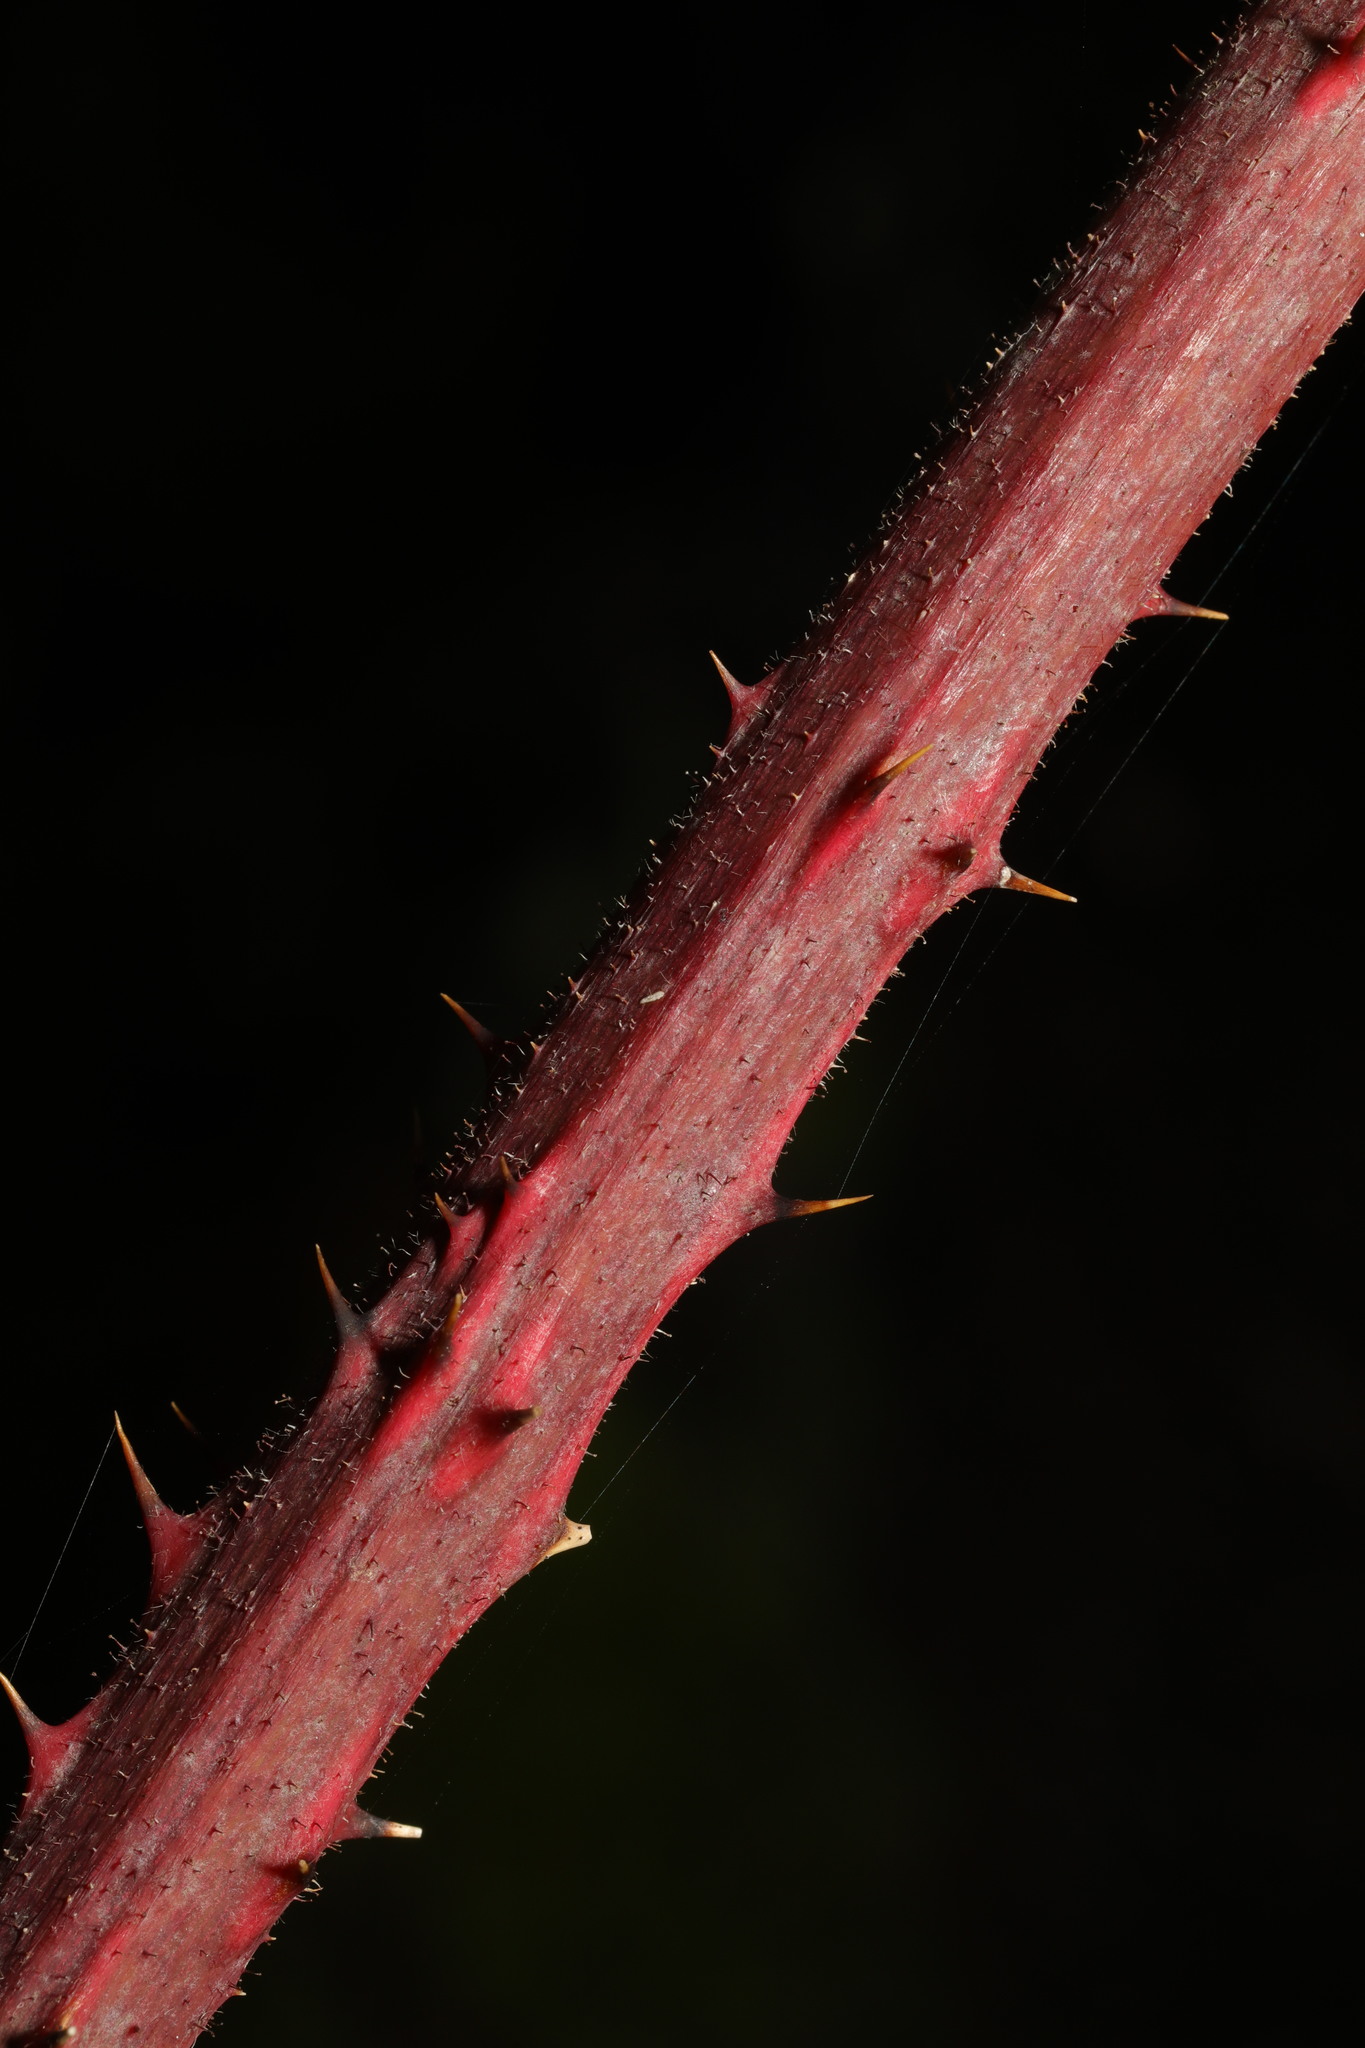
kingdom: Plantae
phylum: Tracheophyta
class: Magnoliopsida
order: Rosales
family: Rosaceae
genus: Rubus
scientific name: Rubus rufescens
